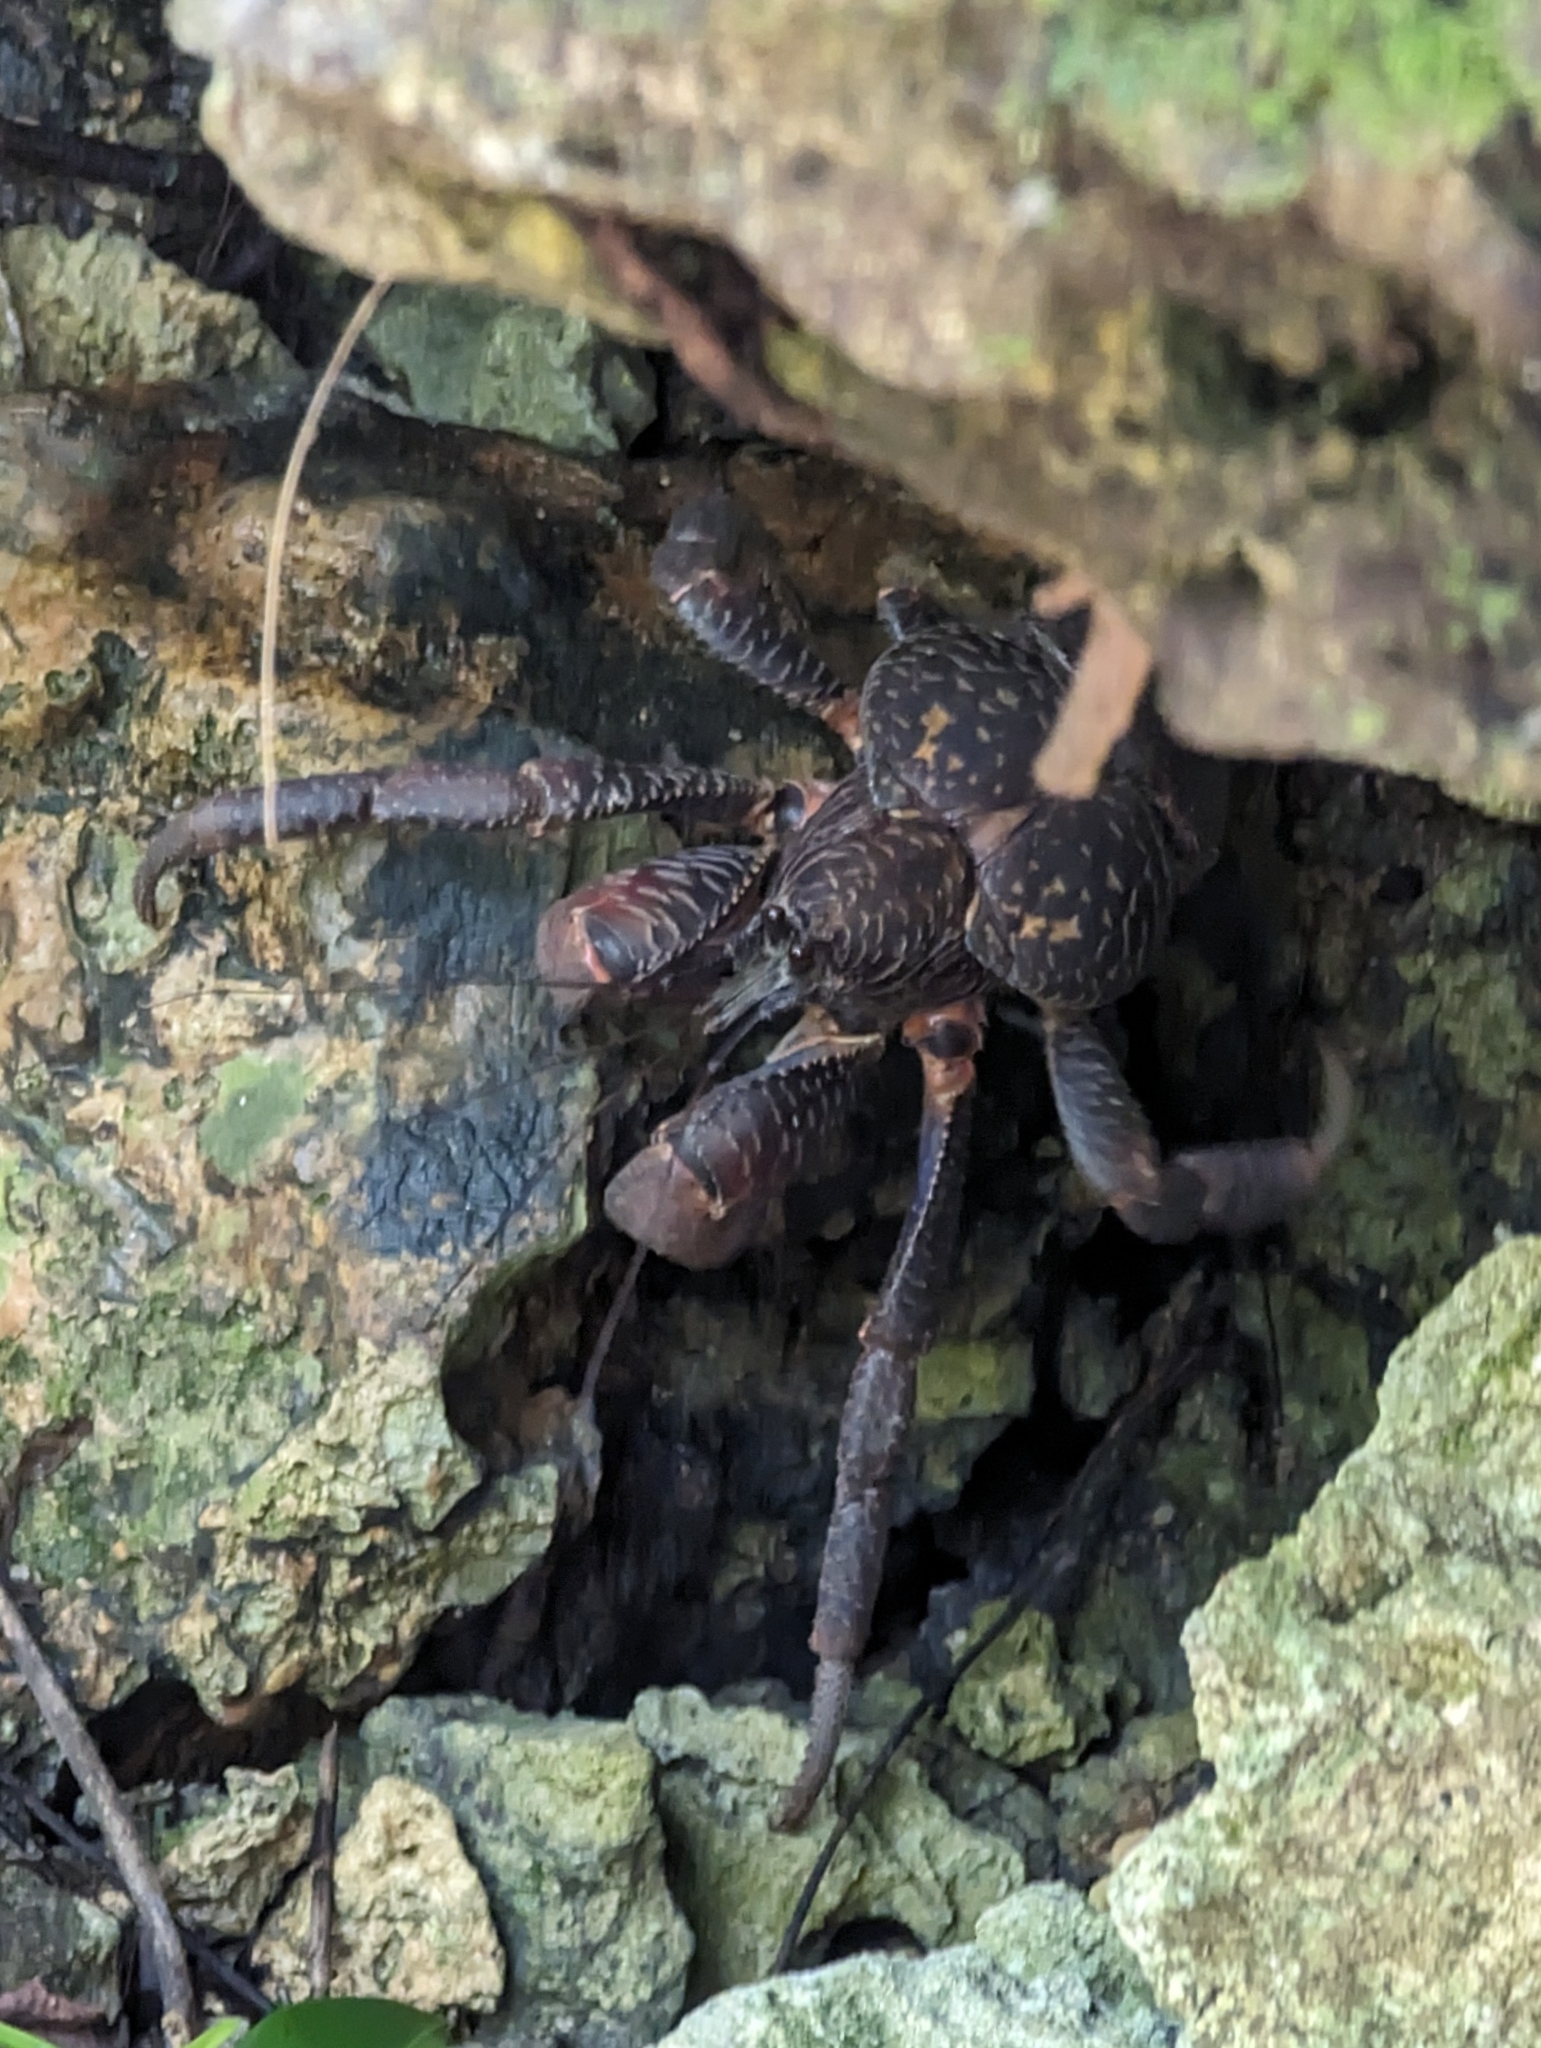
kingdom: Animalia
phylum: Arthropoda
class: Malacostraca
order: Decapoda
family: Coenobitidae
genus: Birgus
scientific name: Birgus latro
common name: Coconut crab
